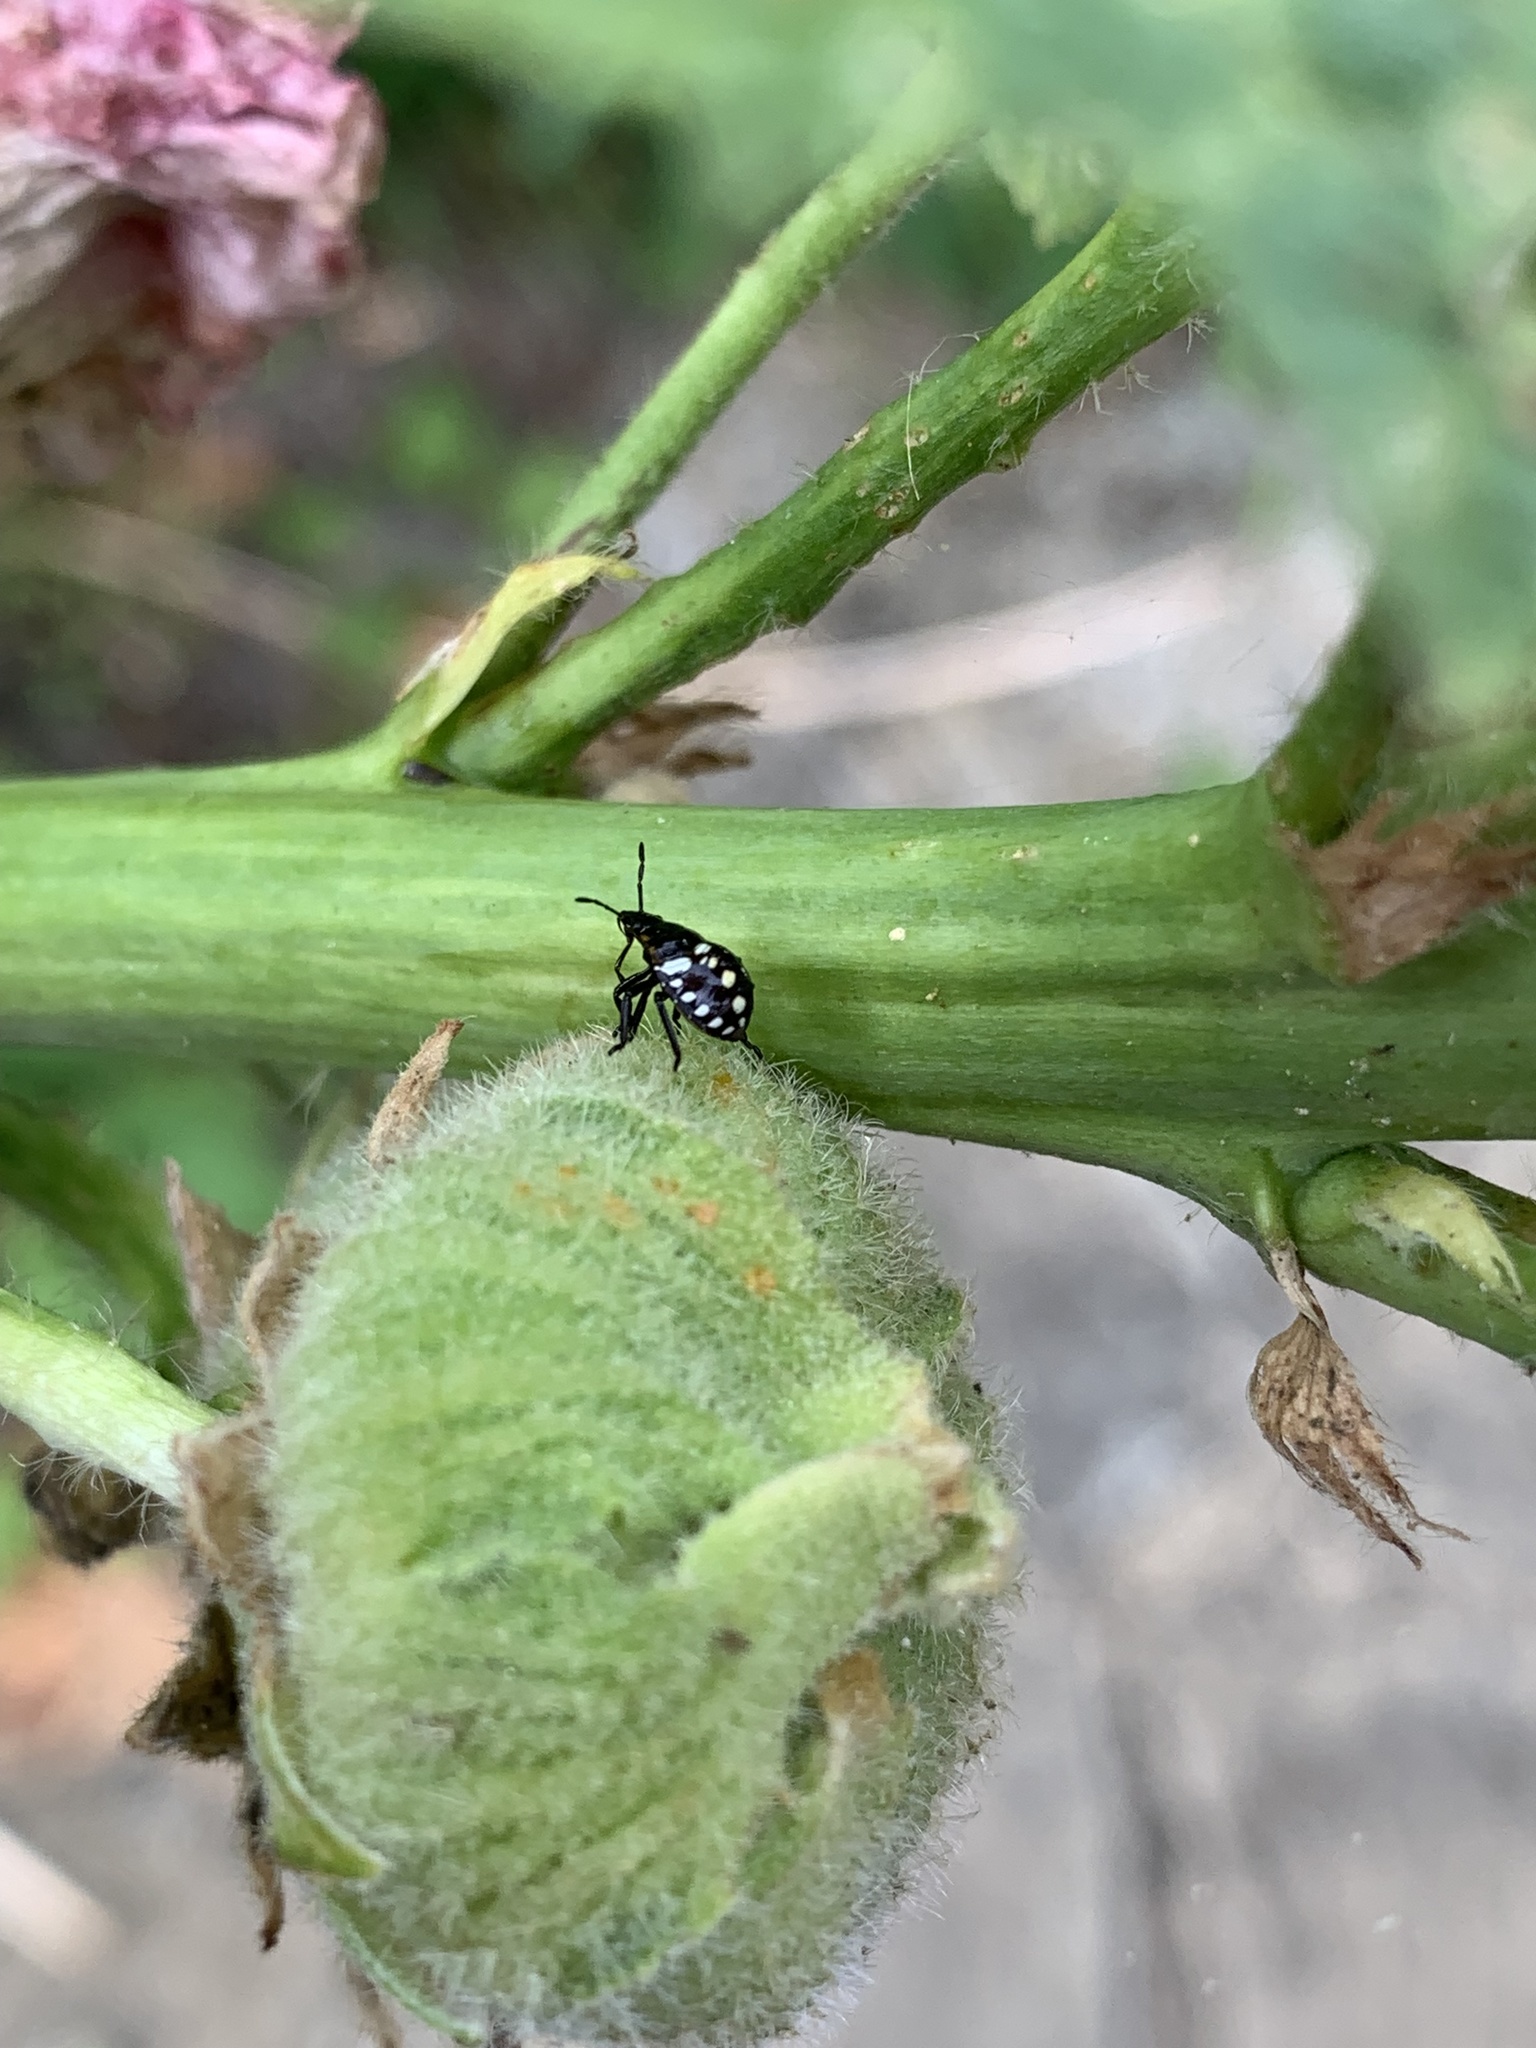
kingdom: Animalia
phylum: Arthropoda
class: Insecta
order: Hemiptera
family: Pentatomidae
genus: Nezara
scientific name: Nezara viridula
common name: Southern green stink bug
